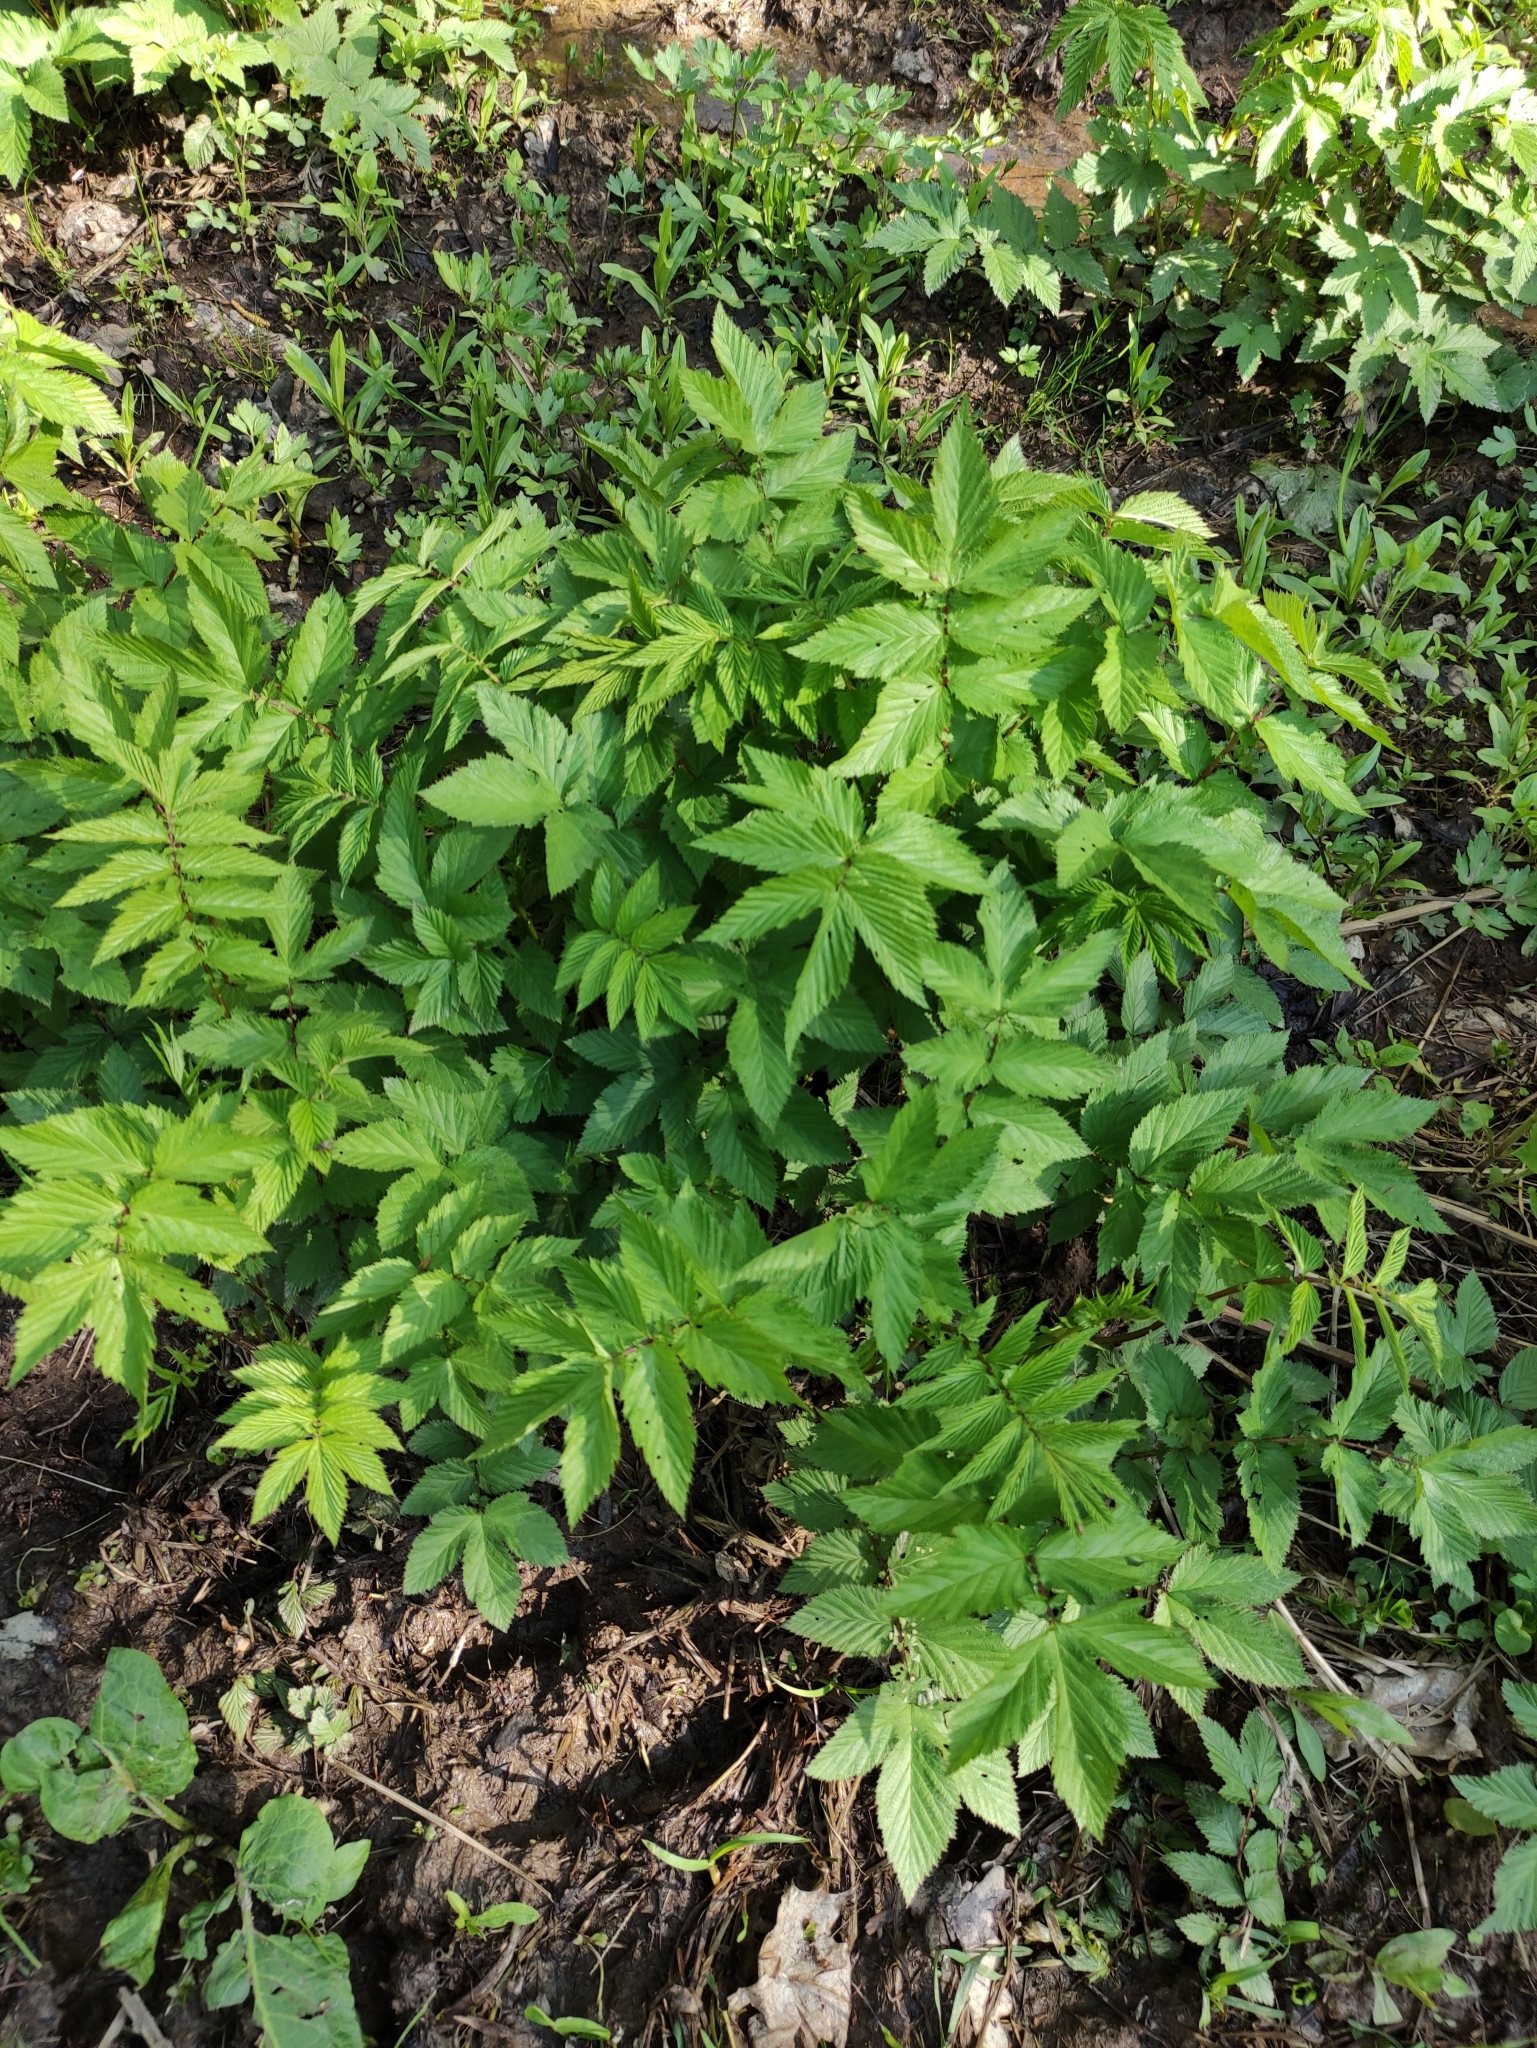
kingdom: Plantae
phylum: Tracheophyta
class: Magnoliopsida
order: Rosales
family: Rosaceae
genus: Filipendula
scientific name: Filipendula ulmaria
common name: Meadowsweet
